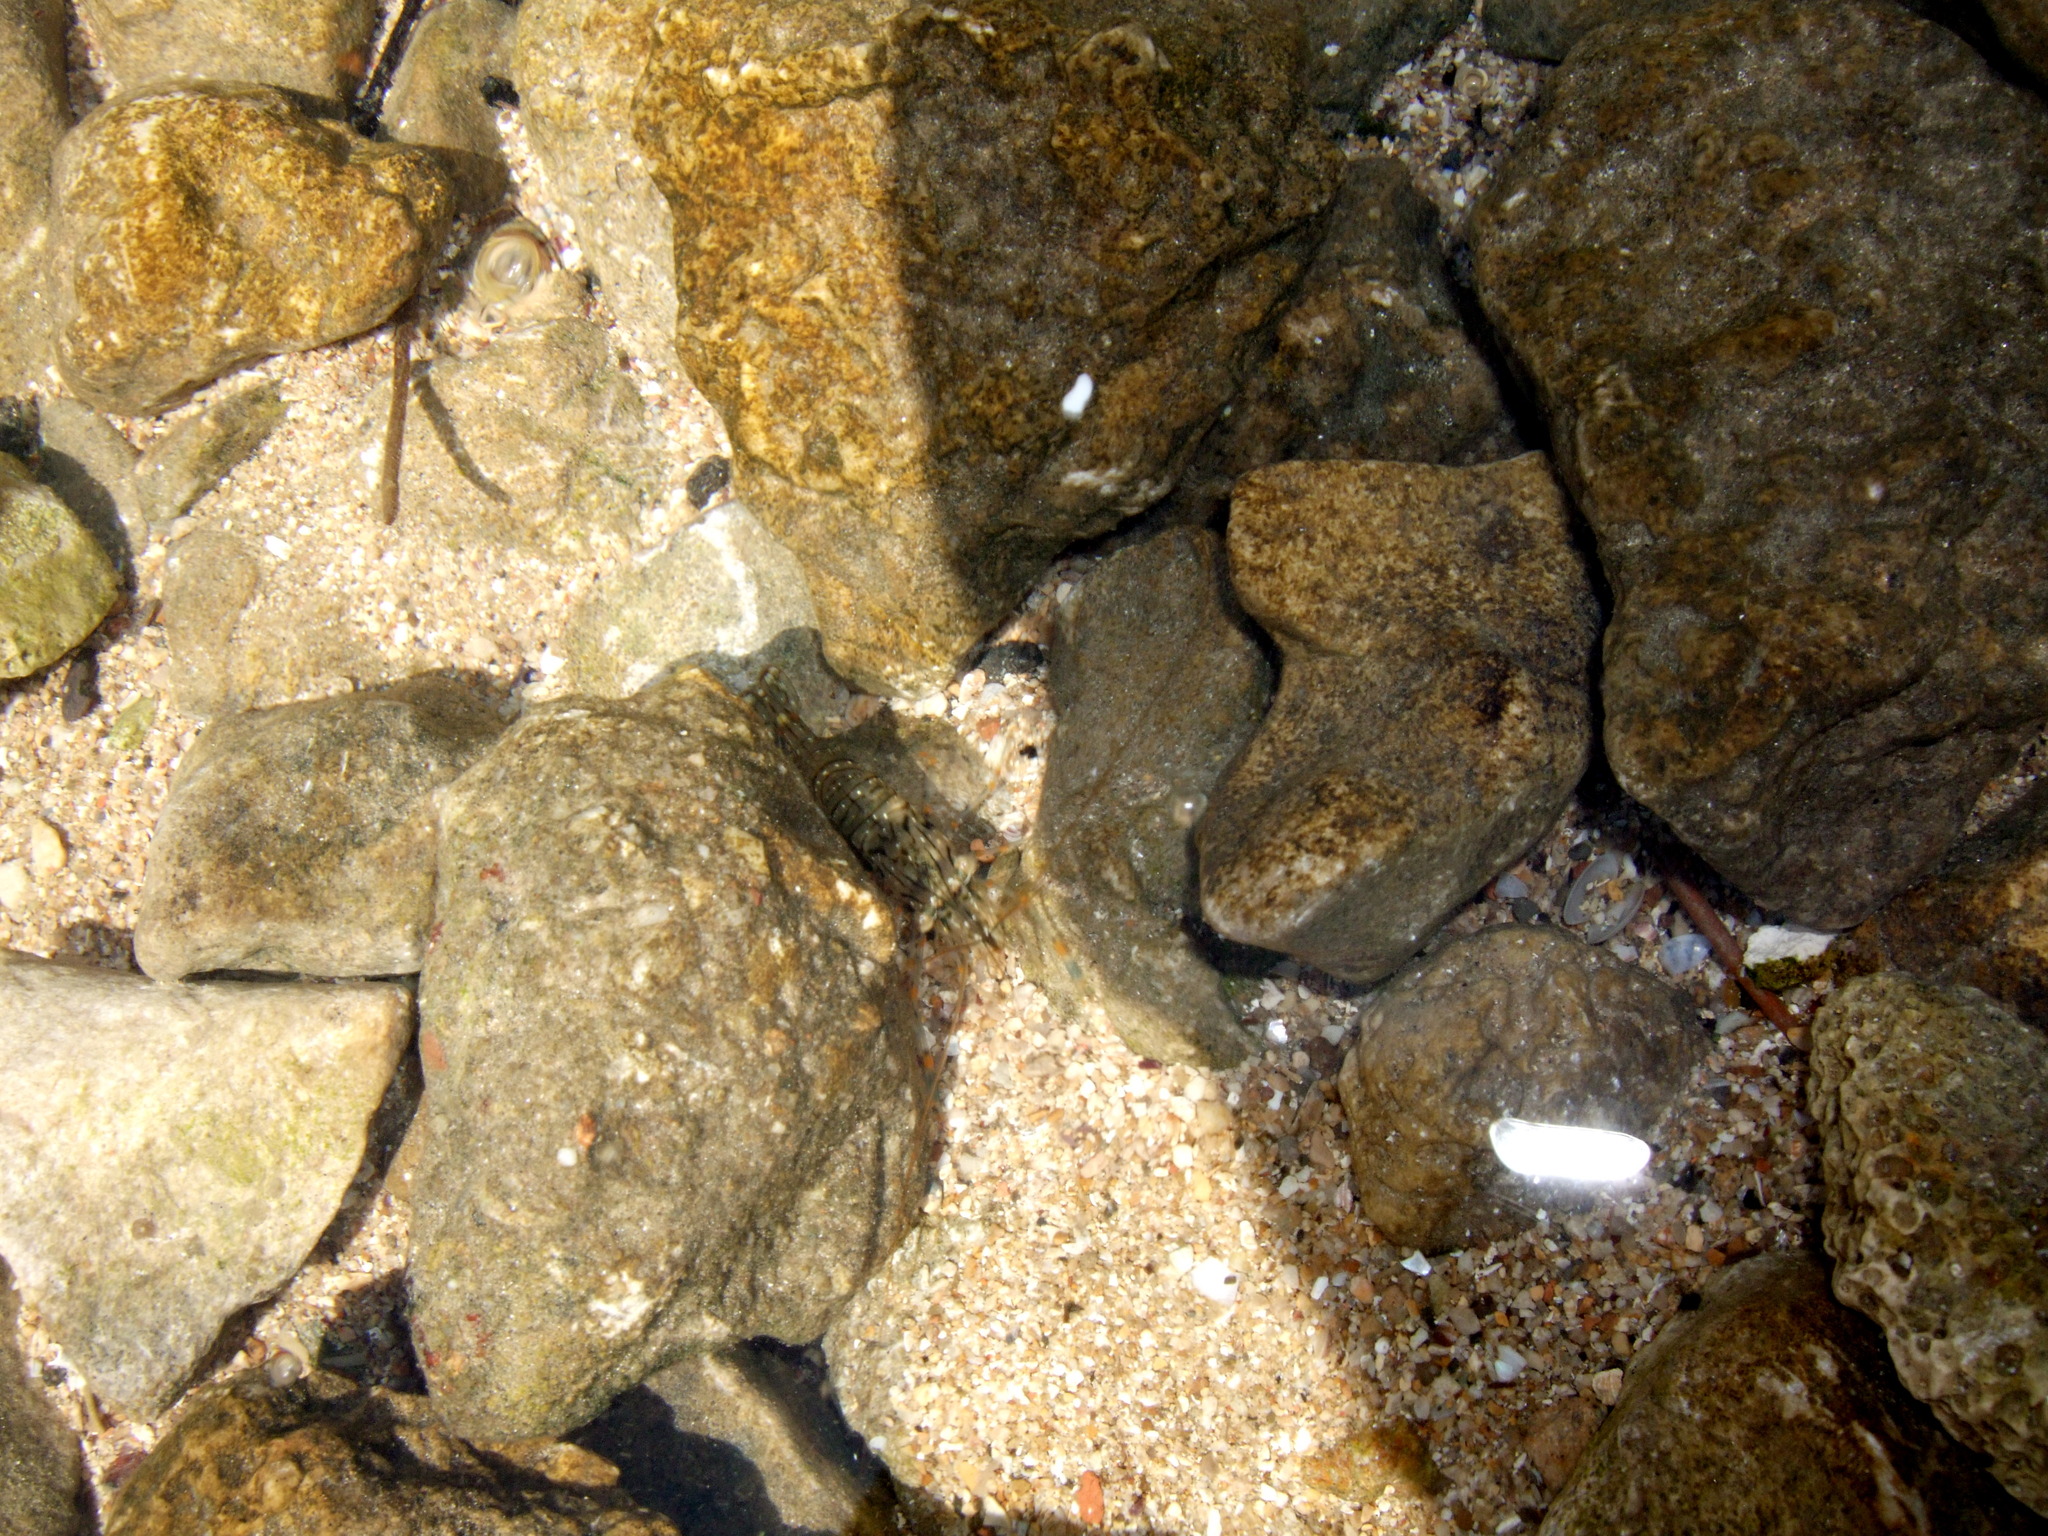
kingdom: Animalia
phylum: Arthropoda
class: Malacostraca
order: Decapoda
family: Palaemonidae
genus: Palaemon
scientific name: Palaemon elegans
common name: Grass prawm
